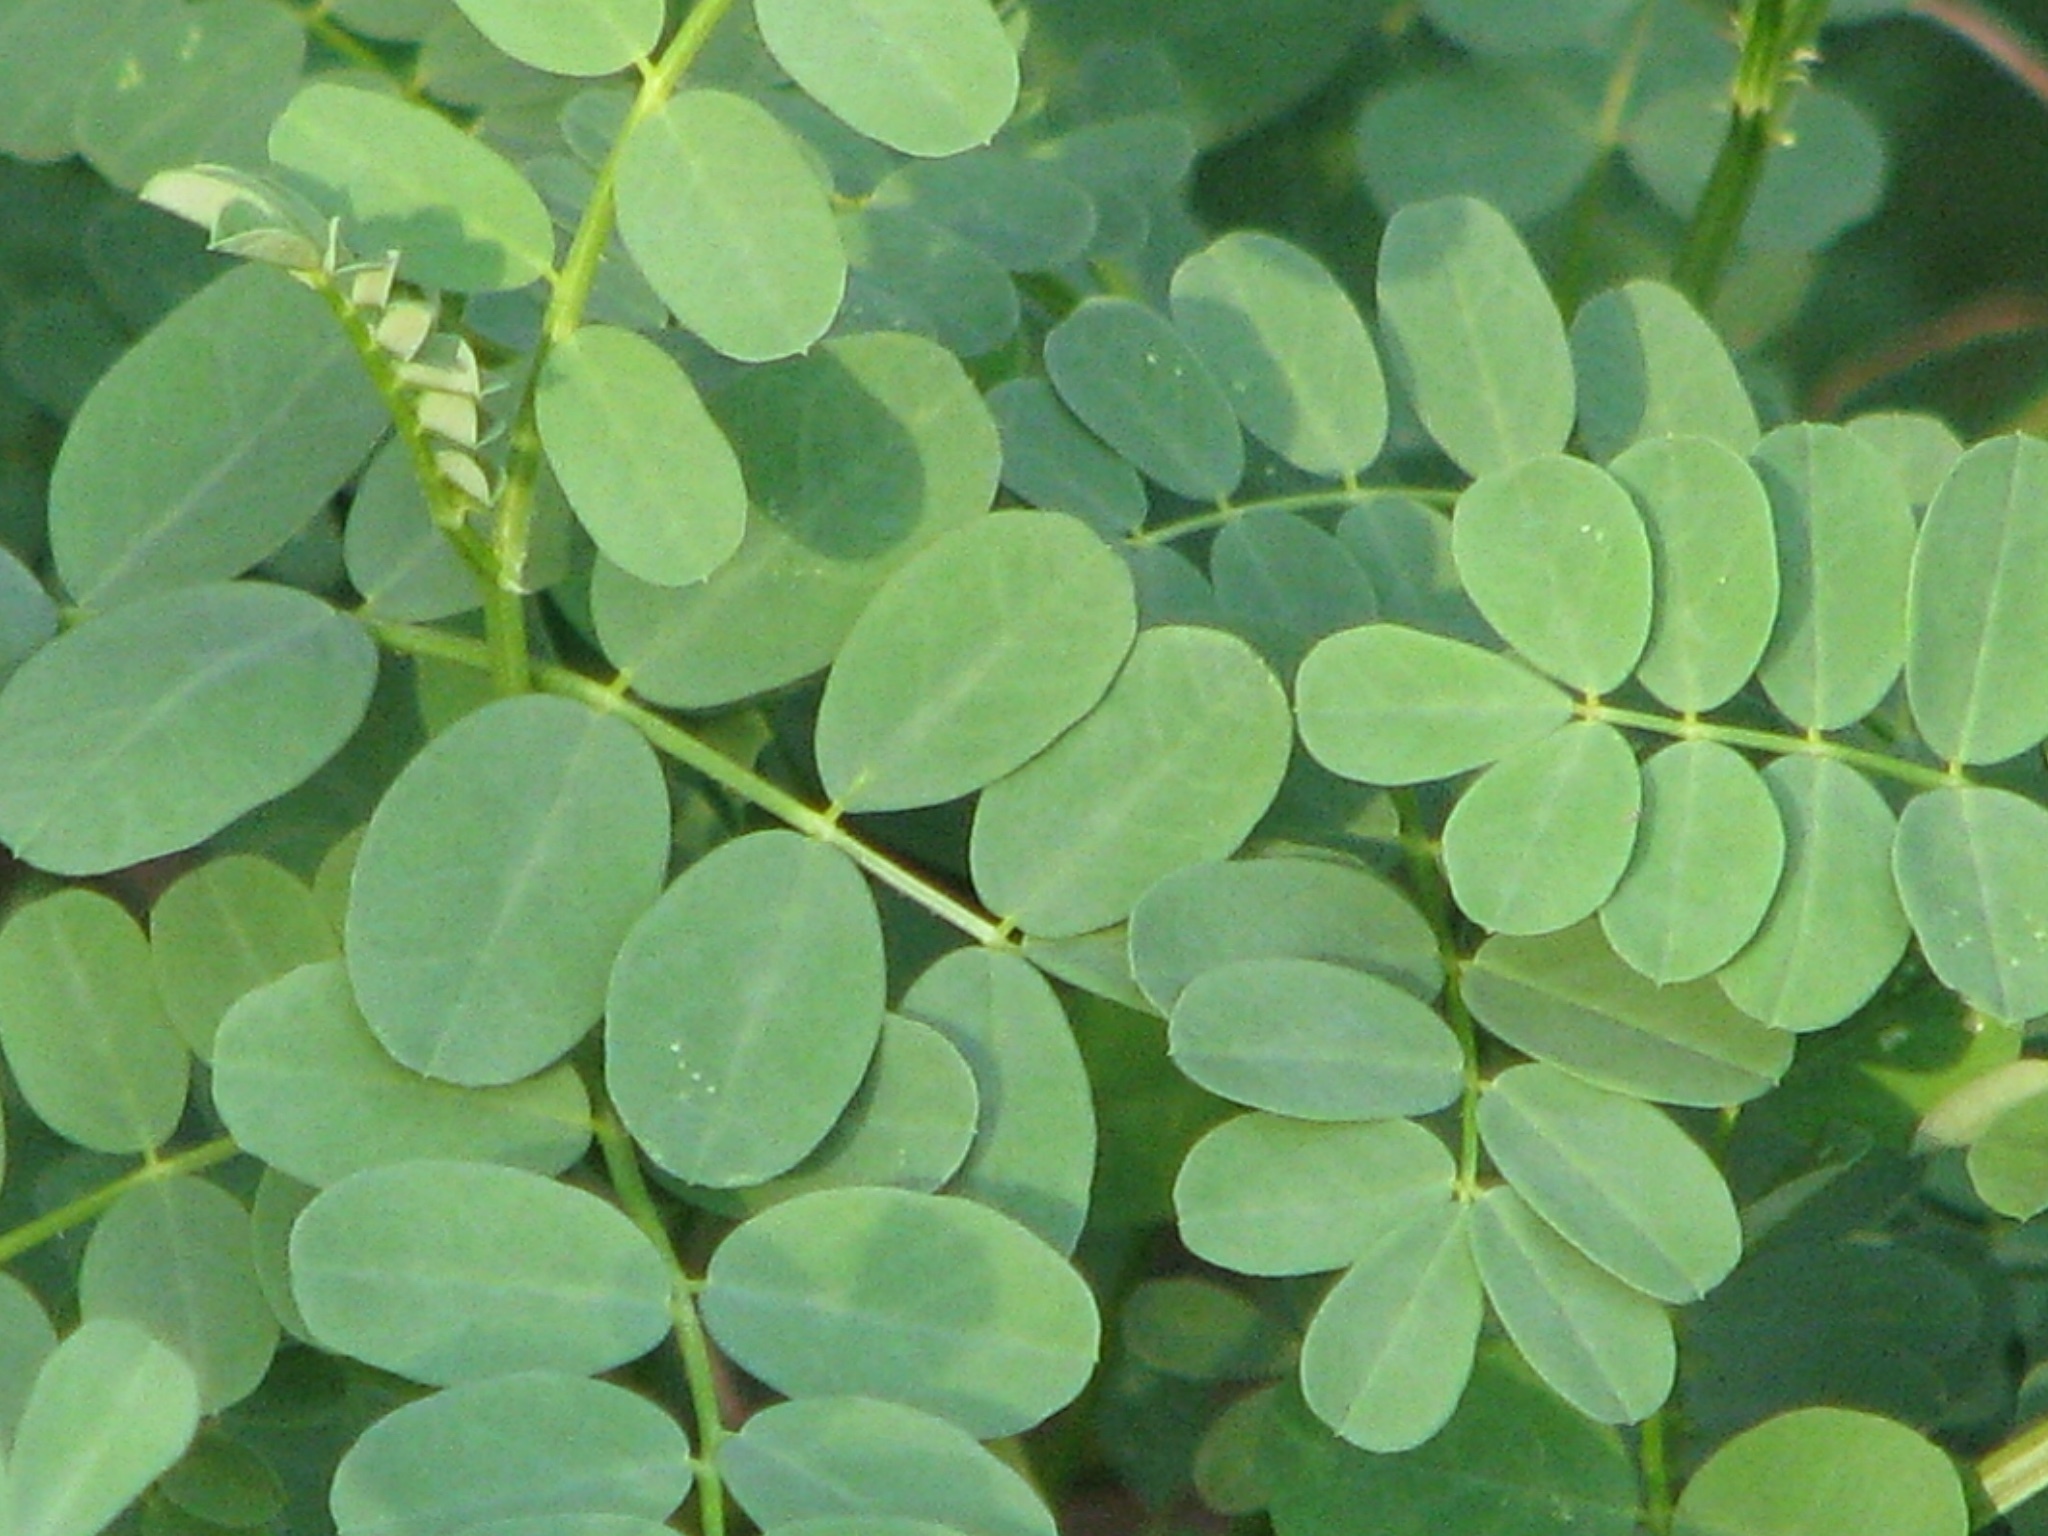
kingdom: Plantae
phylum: Tracheophyta
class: Magnoliopsida
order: Fabales
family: Fabaceae
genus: Coronilla
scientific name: Coronilla varia
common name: Crownvetch
